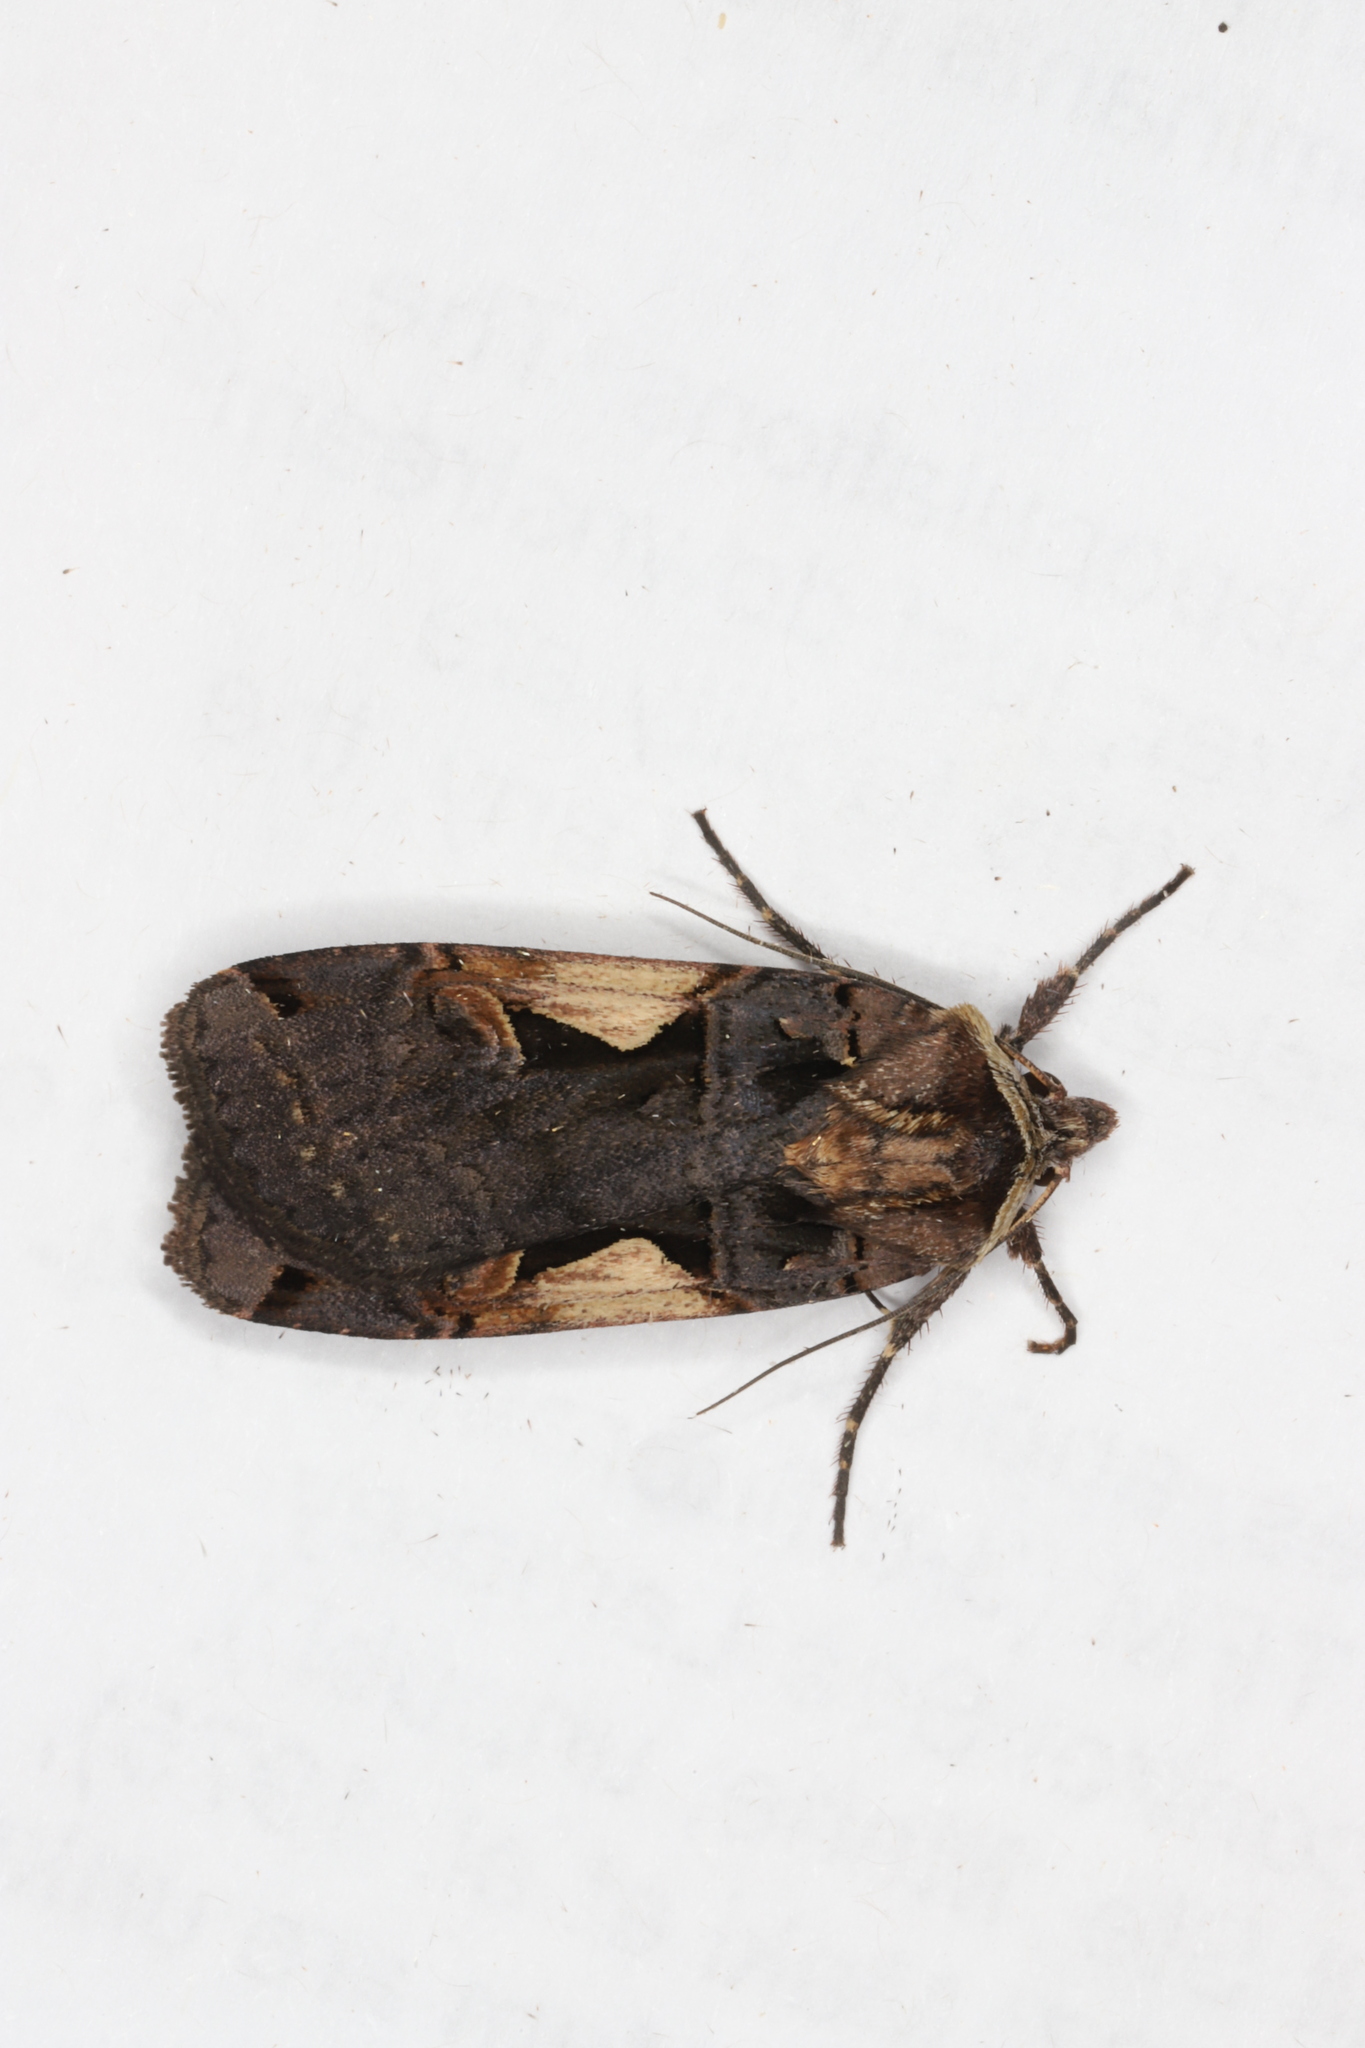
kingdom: Animalia
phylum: Arthropoda
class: Insecta
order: Lepidoptera
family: Noctuidae
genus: Xestia
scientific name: Xestia
